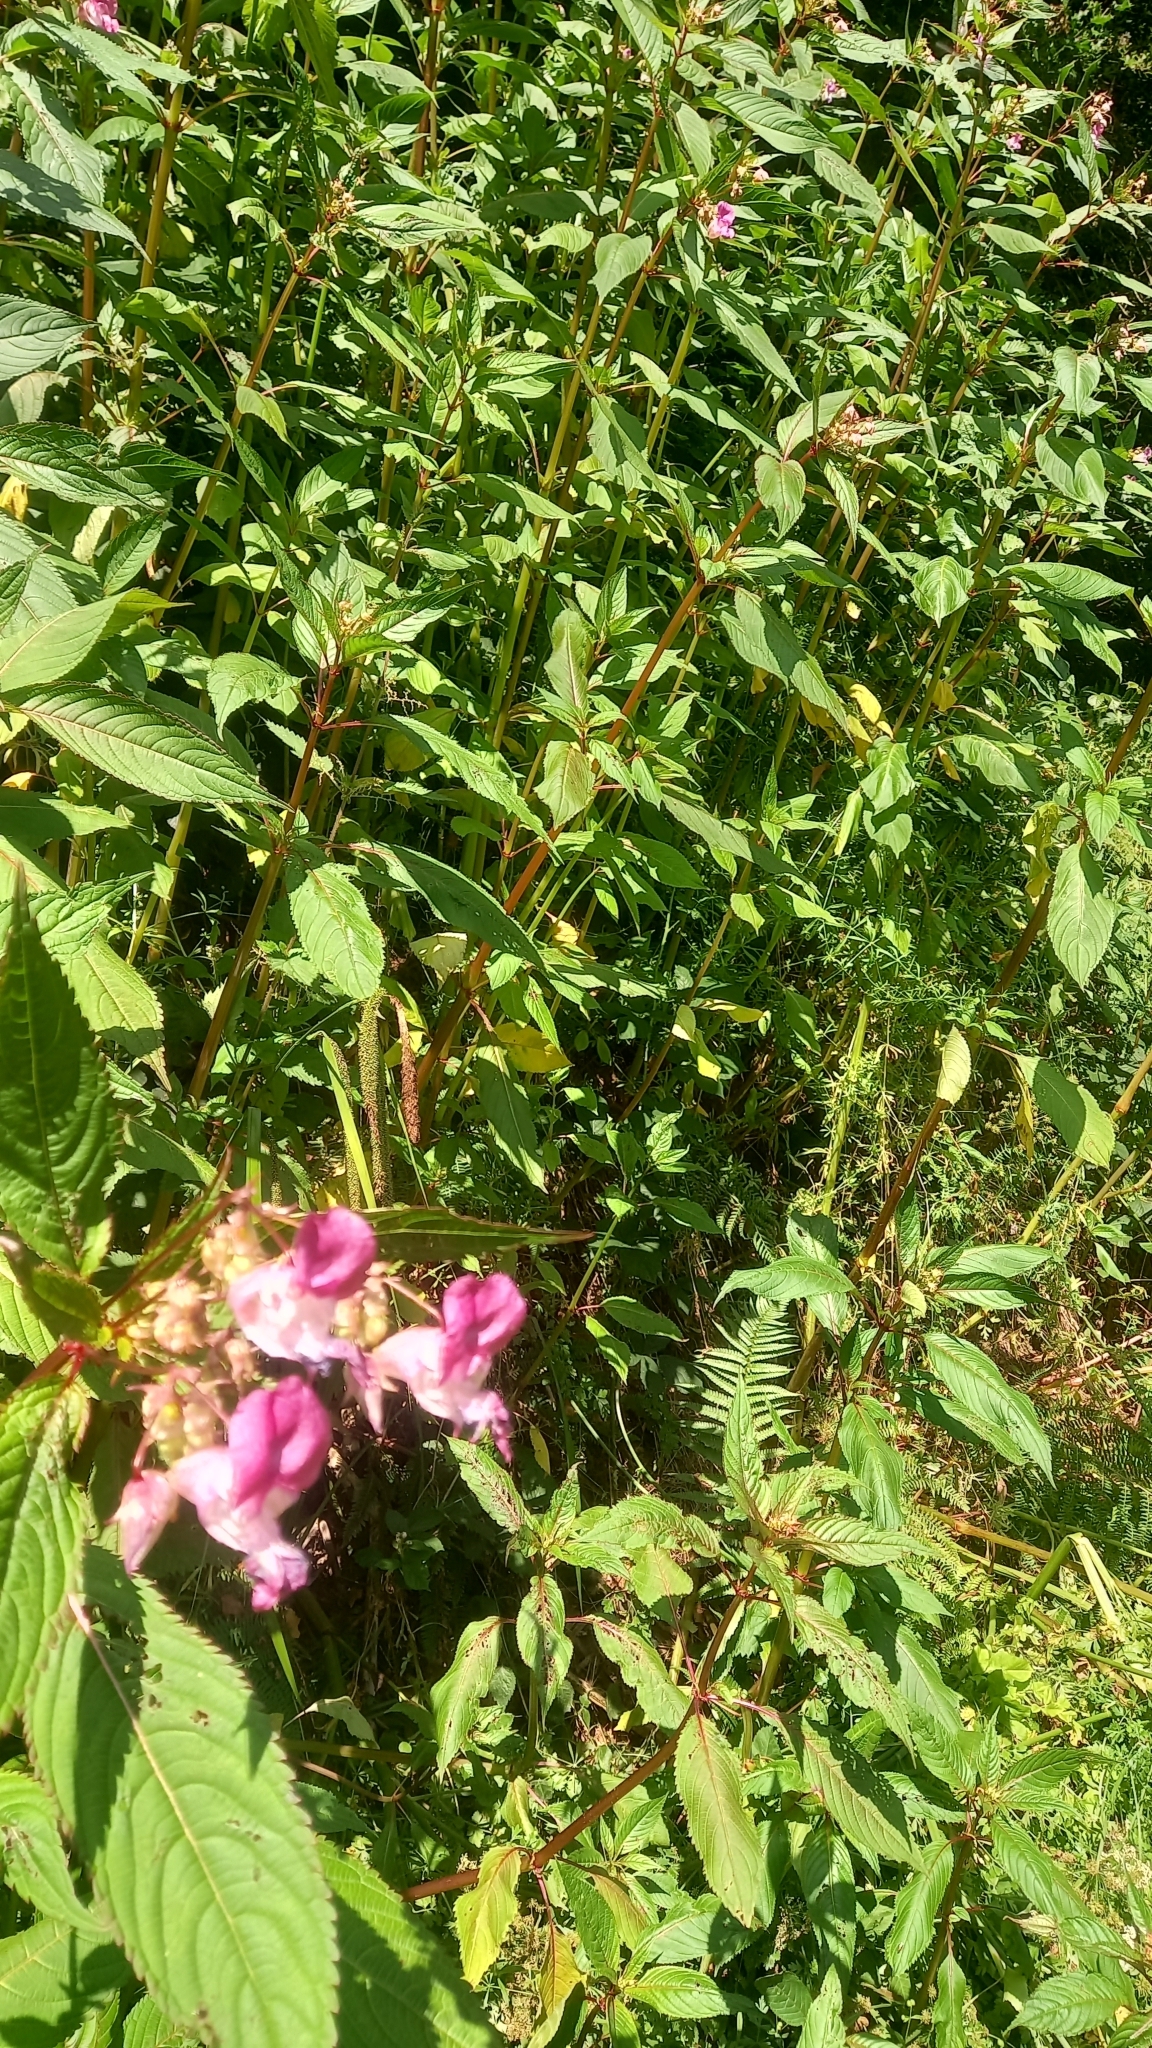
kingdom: Plantae
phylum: Tracheophyta
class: Magnoliopsida
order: Ericales
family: Balsaminaceae
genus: Impatiens
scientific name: Impatiens glandulifera
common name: Himalayan balsam
